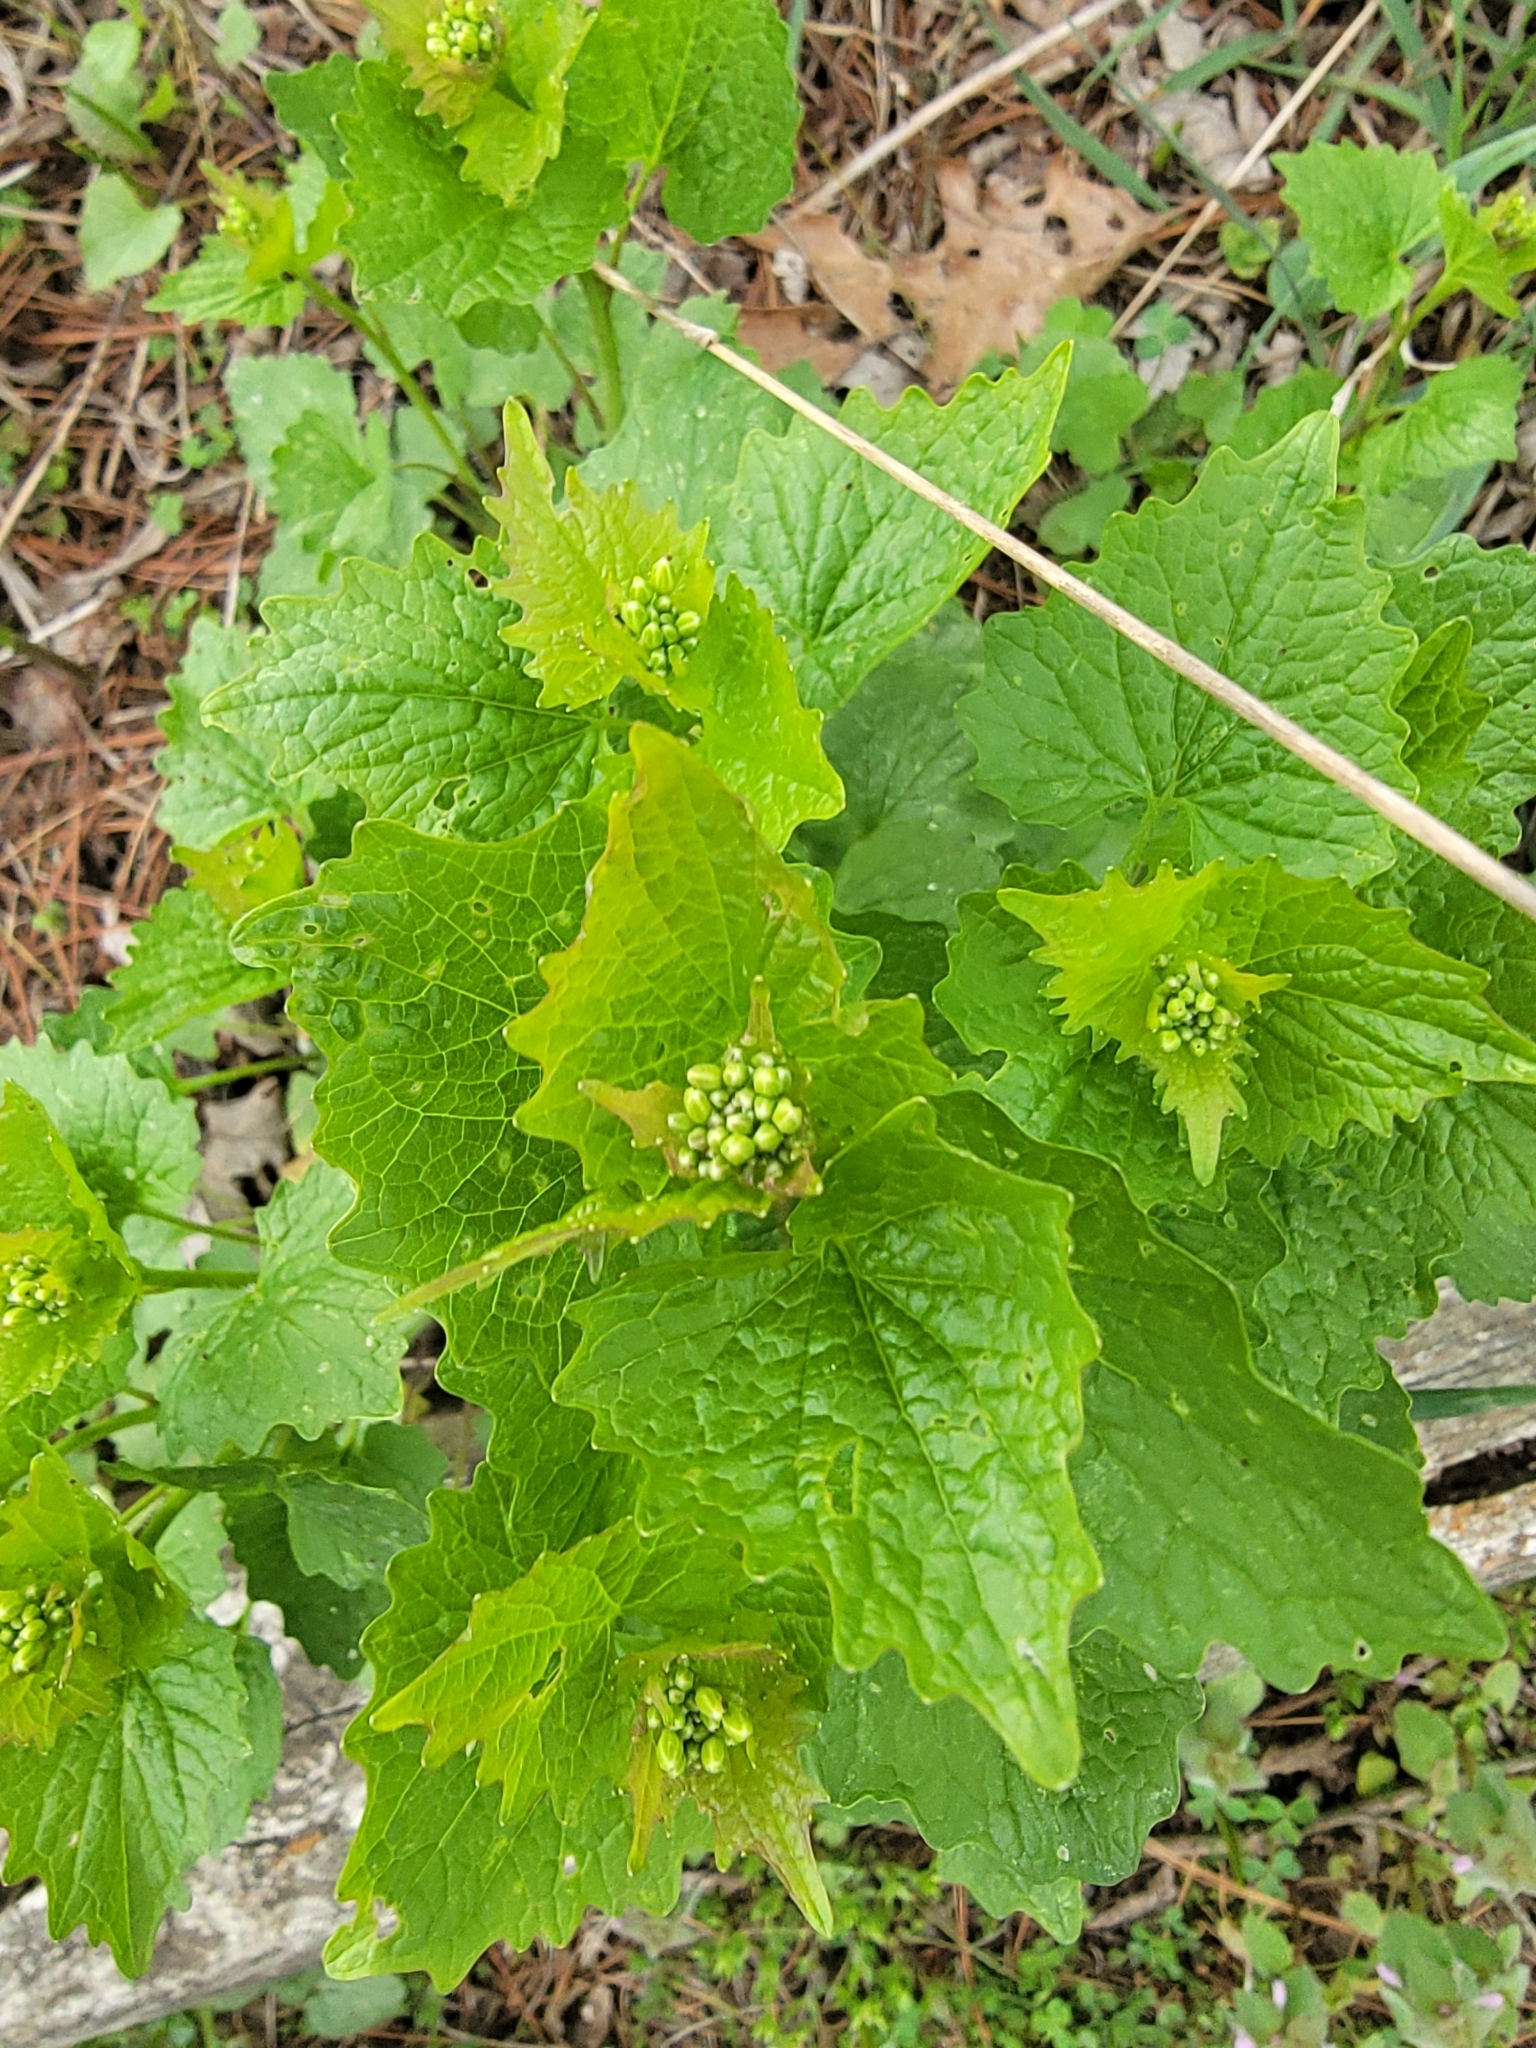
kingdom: Plantae
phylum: Tracheophyta
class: Magnoliopsida
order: Brassicales
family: Brassicaceae
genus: Alliaria
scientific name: Alliaria petiolata
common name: Garlic mustard
